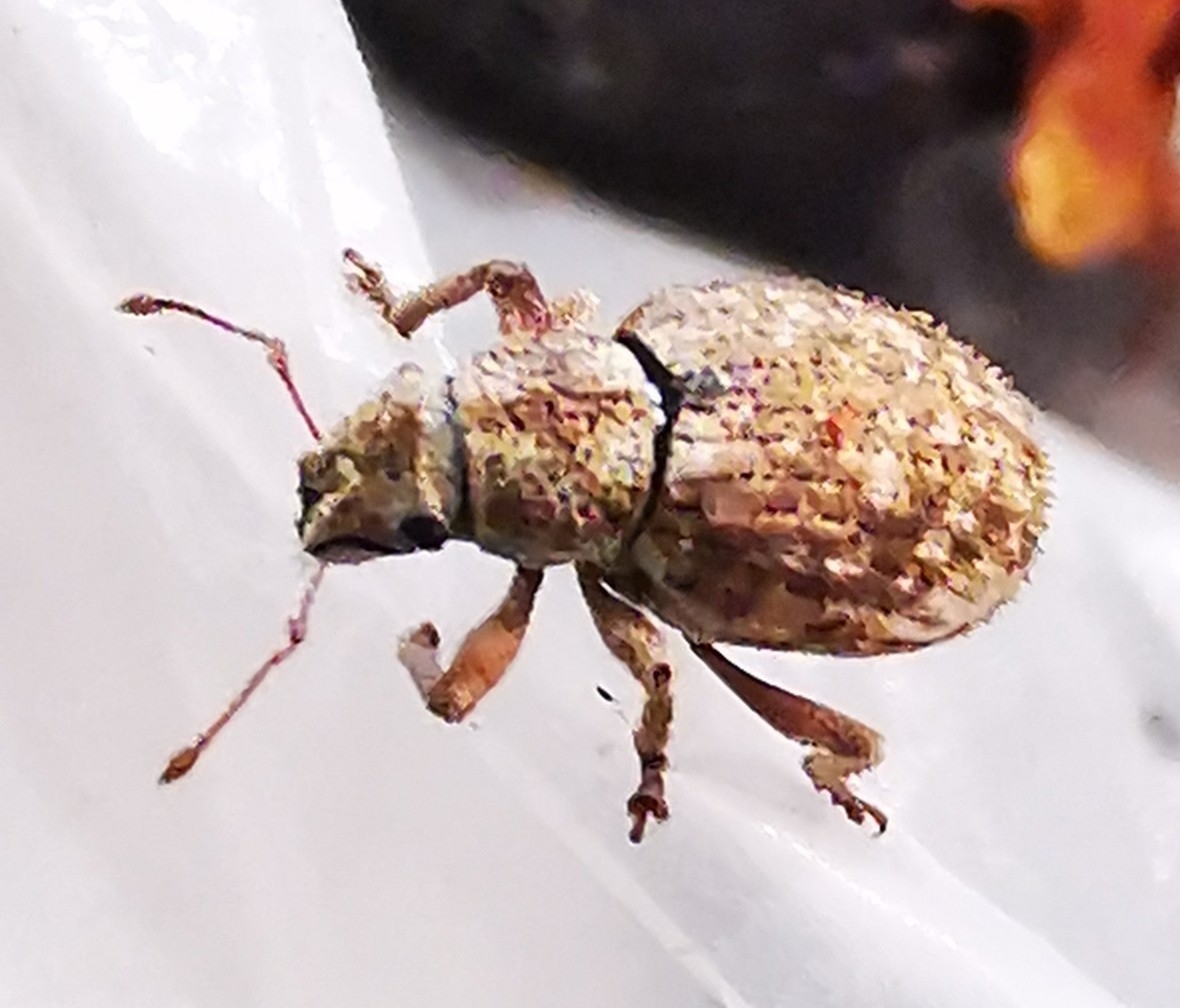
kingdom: Animalia
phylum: Arthropoda
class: Insecta
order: Coleoptera
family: Curculionidae
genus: Strophosoma
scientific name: Strophosoma capitatum
